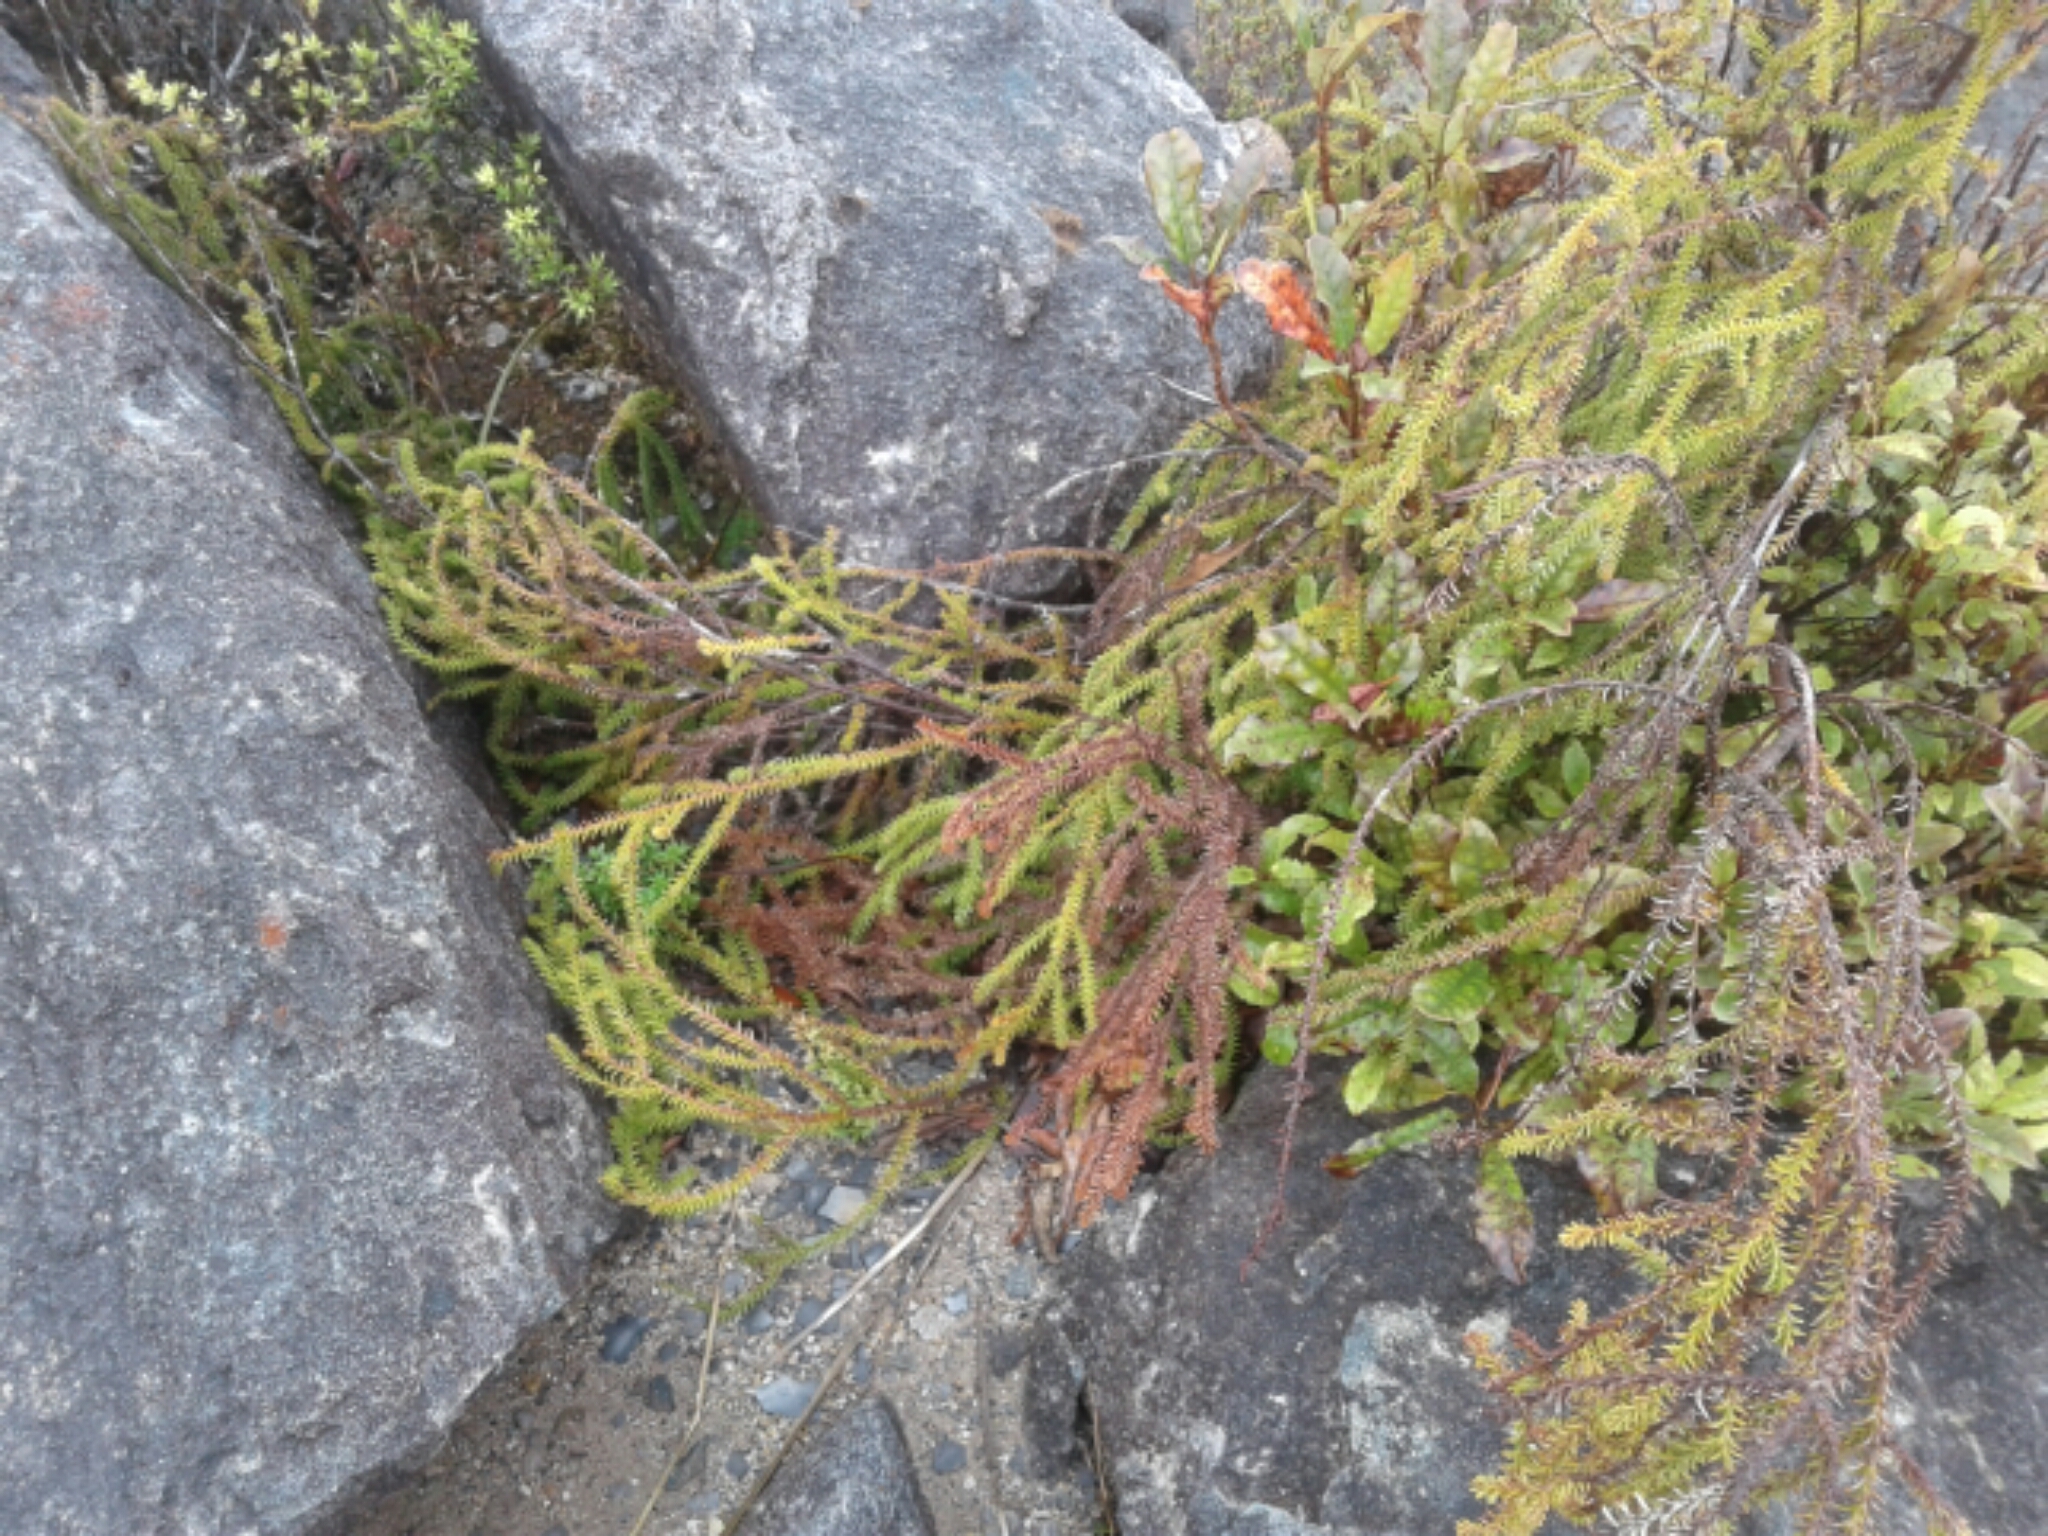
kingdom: Plantae
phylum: Tracheophyta
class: Pinopsida
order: Pinales
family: Podocarpaceae
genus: Dacrydium
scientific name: Dacrydium cupressinum
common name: Red pine
